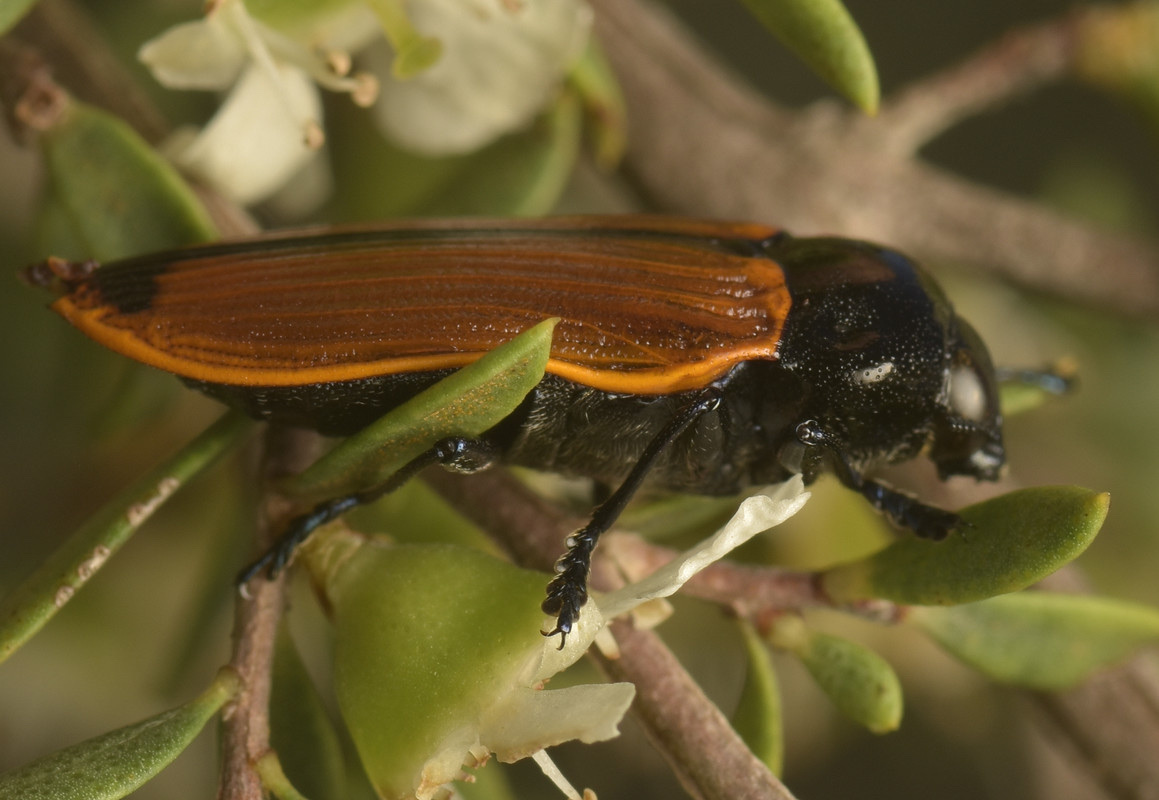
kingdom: Animalia
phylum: Arthropoda
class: Insecta
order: Coleoptera
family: Buprestidae
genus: Castiarina
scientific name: Castiarina rufipennis
